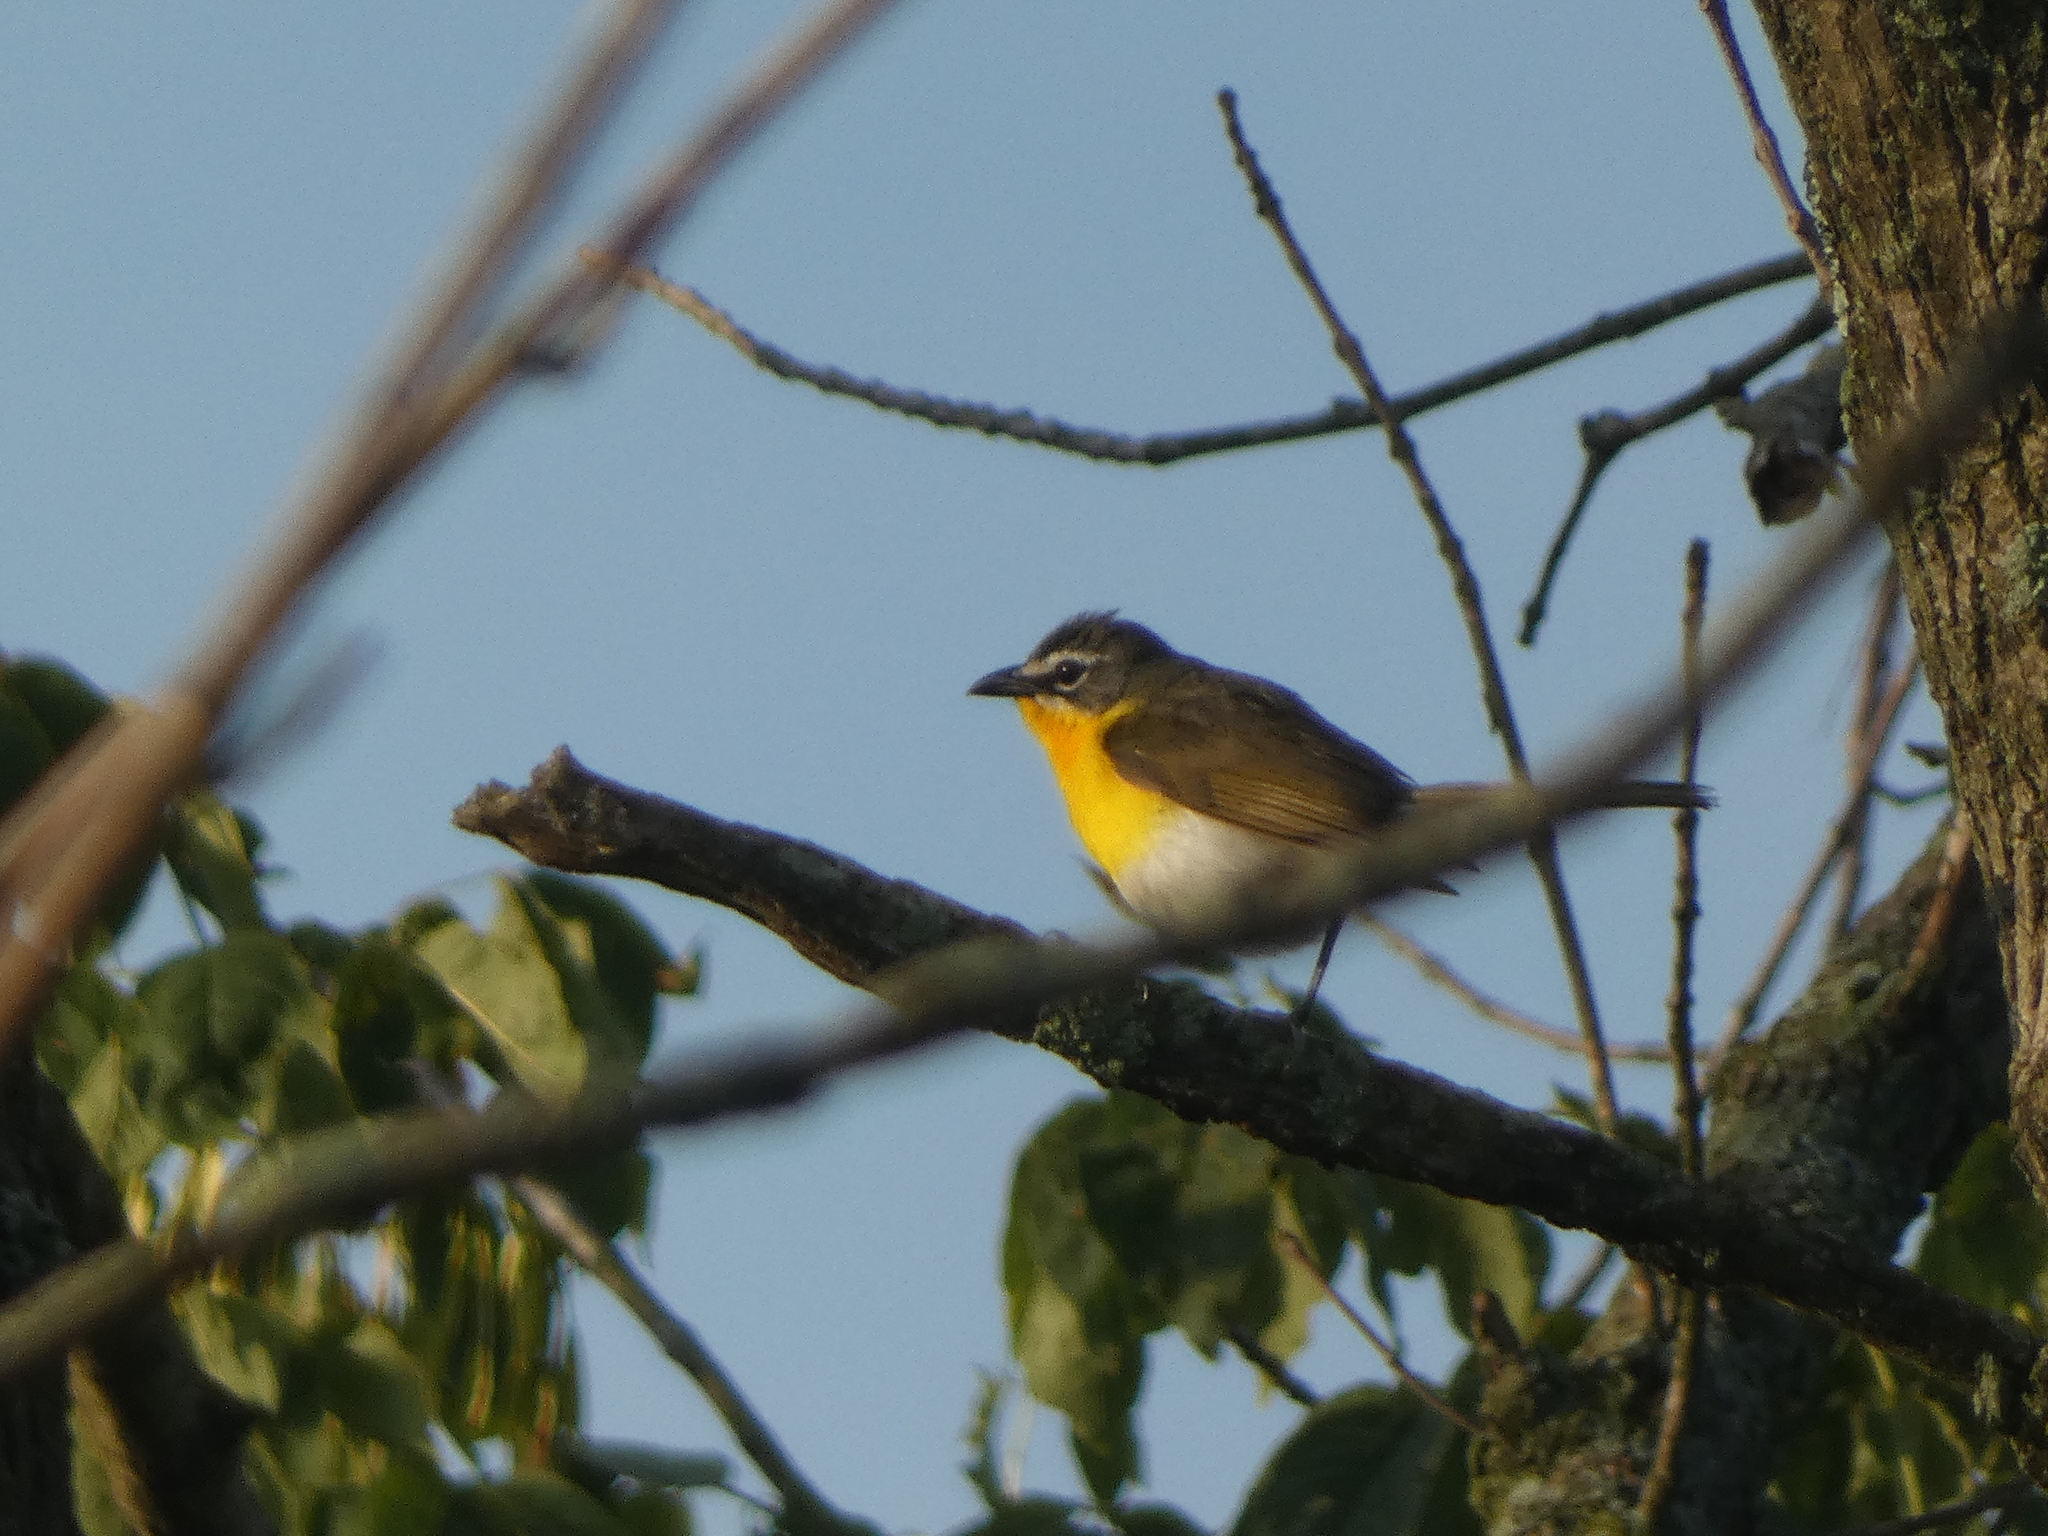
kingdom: Animalia
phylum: Chordata
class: Aves
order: Passeriformes
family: Parulidae
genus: Icteria
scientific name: Icteria virens
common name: Yellow-breasted chat
